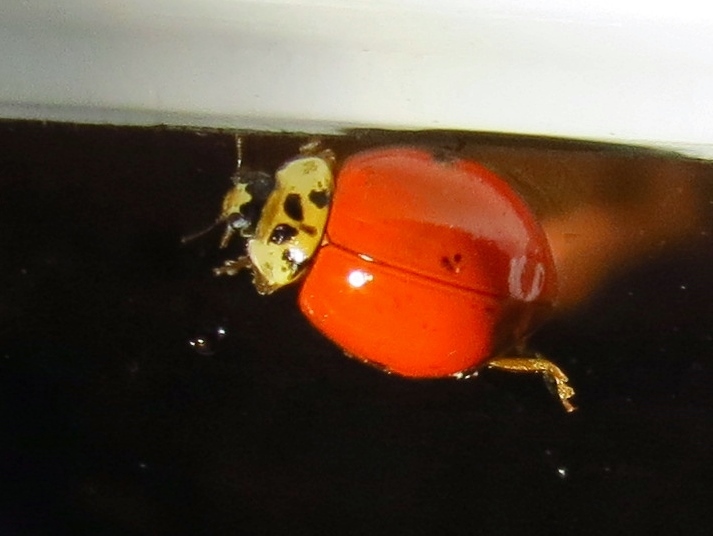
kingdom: Animalia
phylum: Arthropoda
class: Insecta
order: Coleoptera
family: Coccinellidae
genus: Harmonia
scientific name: Harmonia axyridis
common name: Harlequin ladybird
